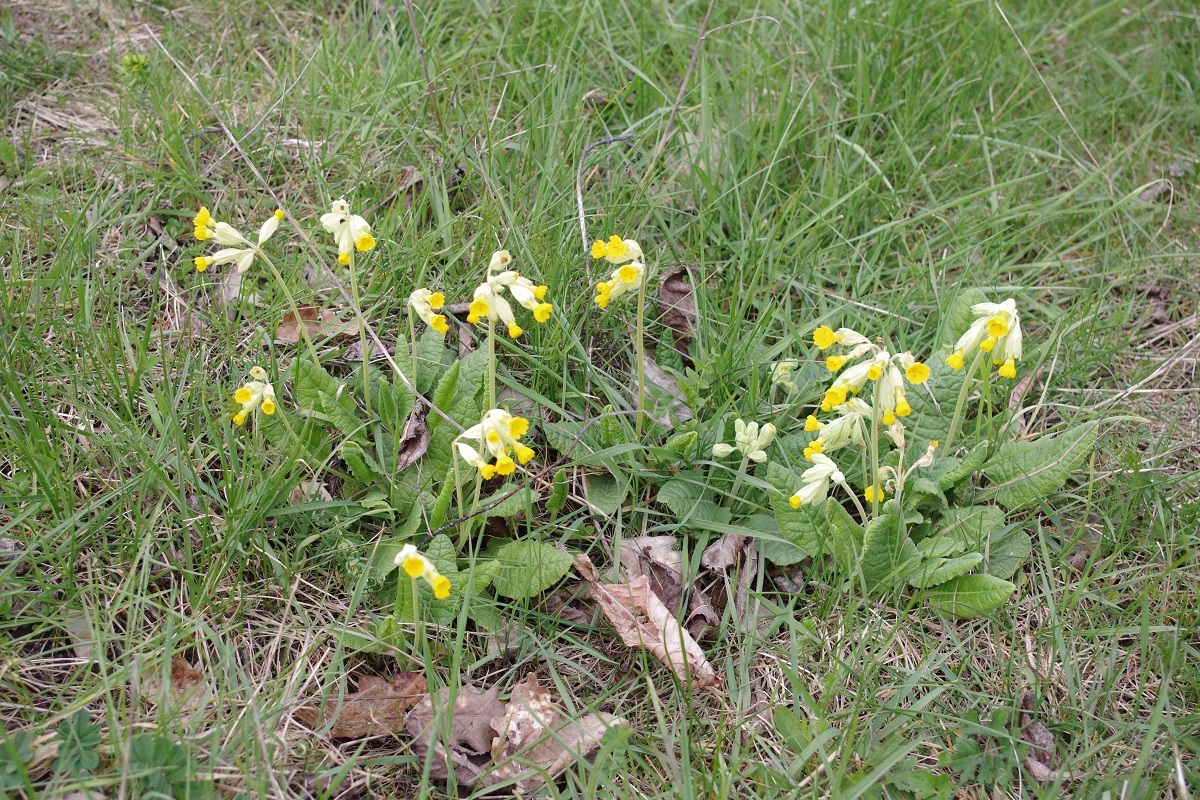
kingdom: Plantae
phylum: Tracheophyta
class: Magnoliopsida
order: Ericales
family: Primulaceae
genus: Primula
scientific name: Primula veris
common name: Cowslip
